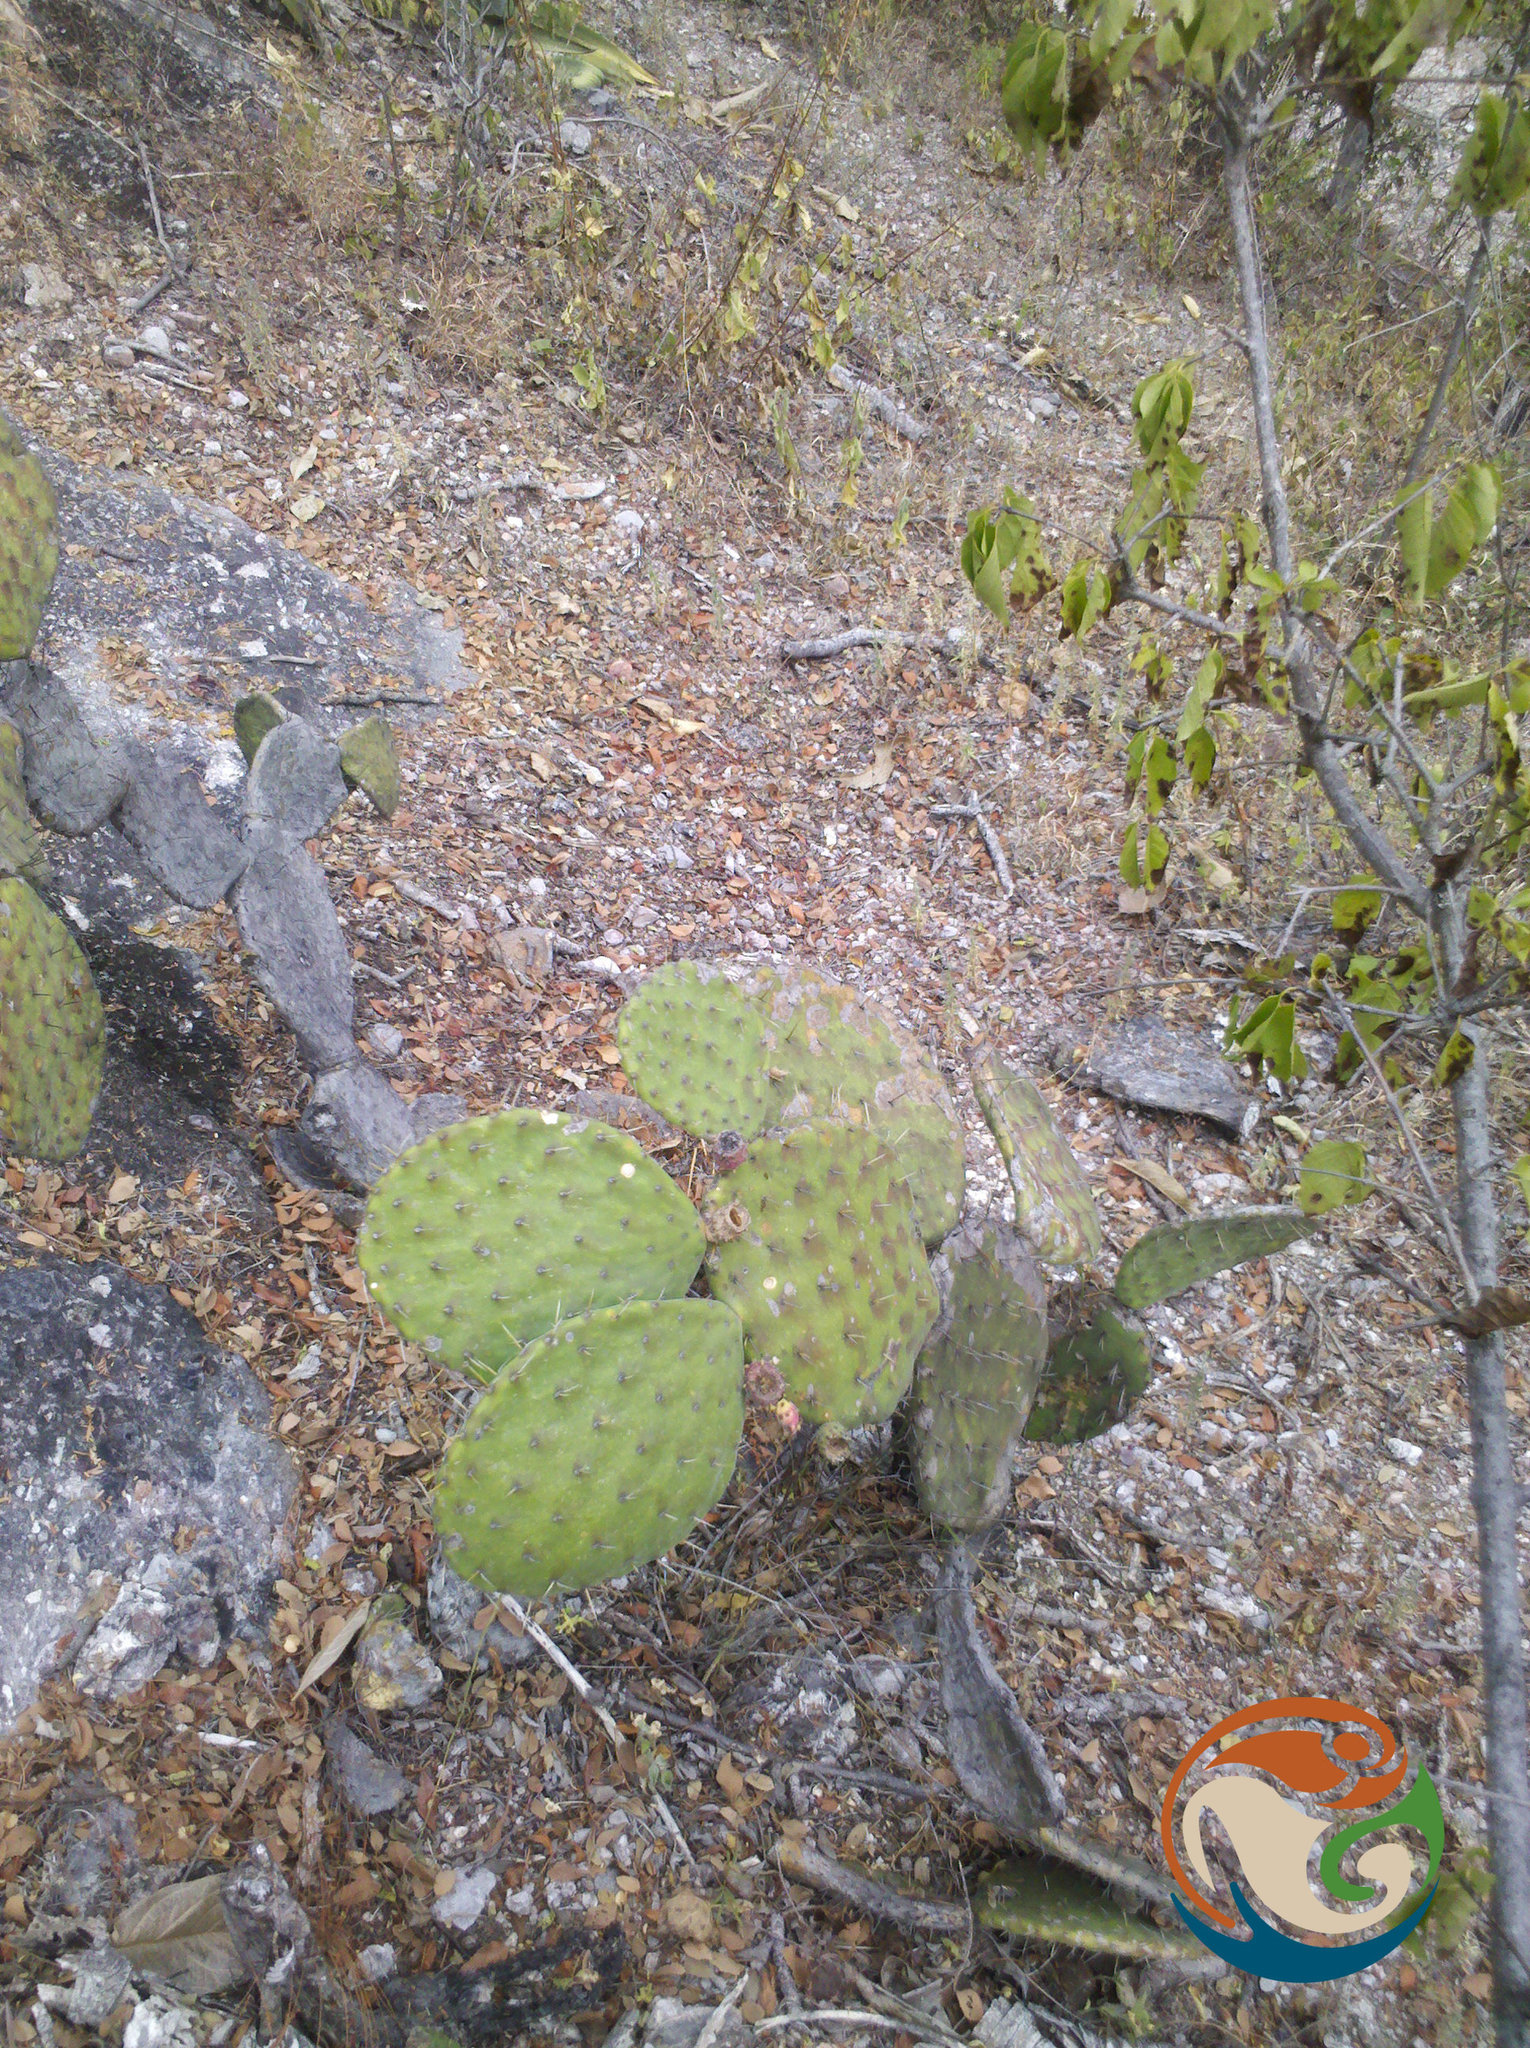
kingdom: Plantae
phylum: Tracheophyta
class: Magnoliopsida
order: Caryophyllales
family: Cactaceae
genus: Opuntia
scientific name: Opuntia decumbens
